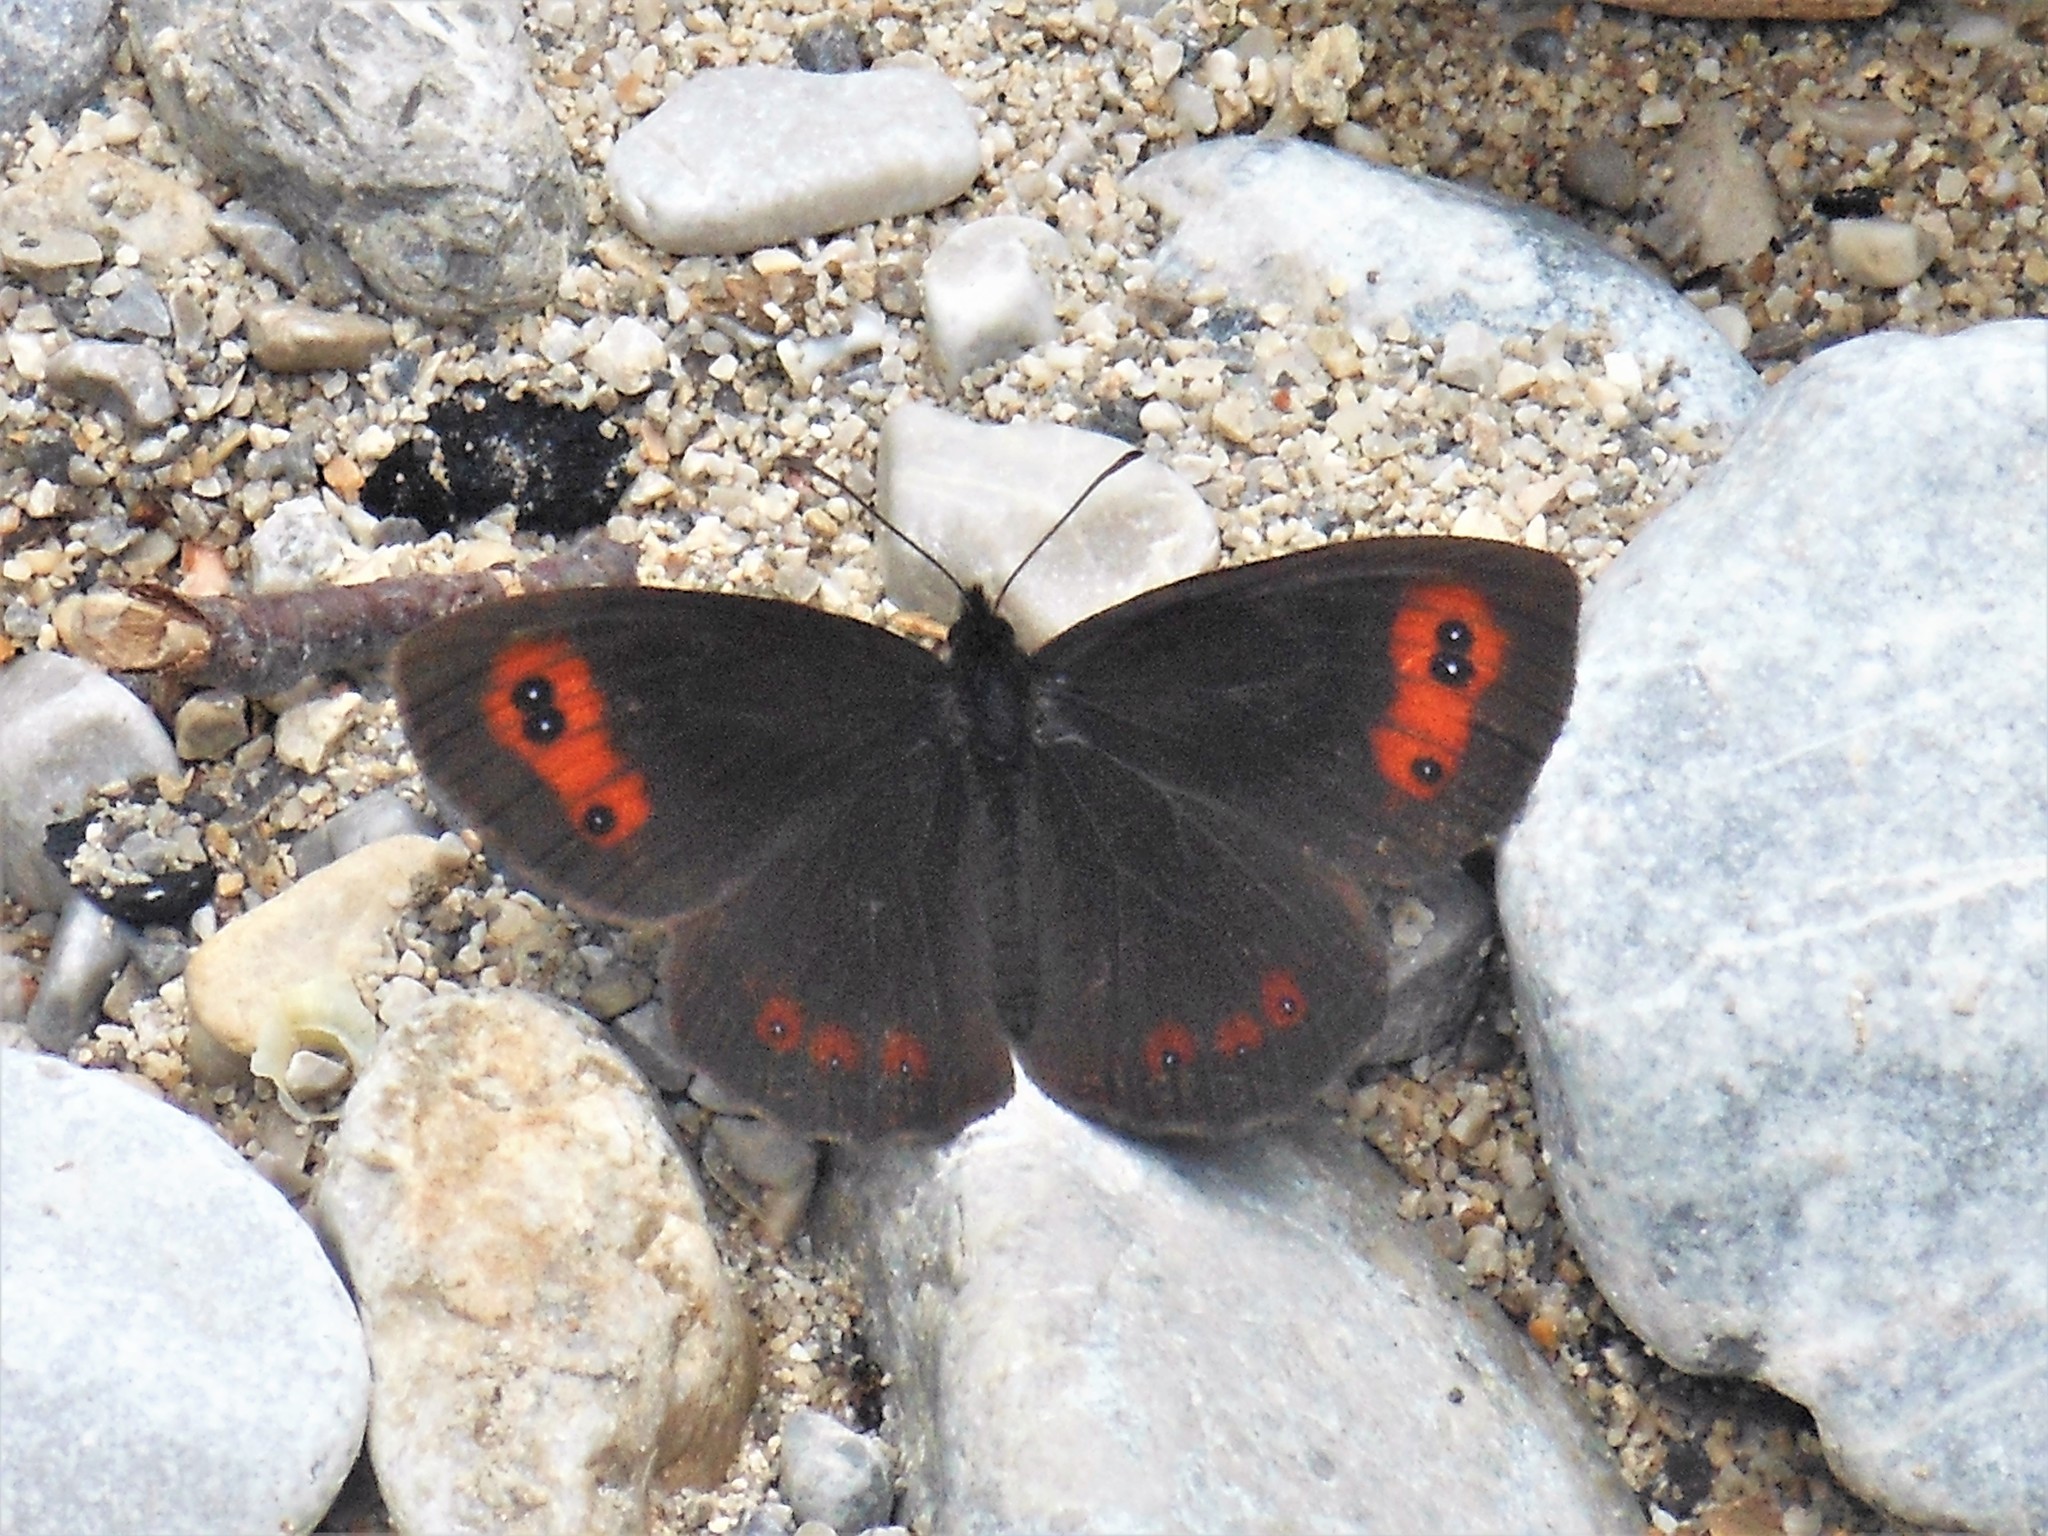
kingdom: Animalia
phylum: Arthropoda
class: Insecta
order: Lepidoptera
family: Nymphalidae
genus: Erebia
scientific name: Erebia aethiops
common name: Scotch argus
